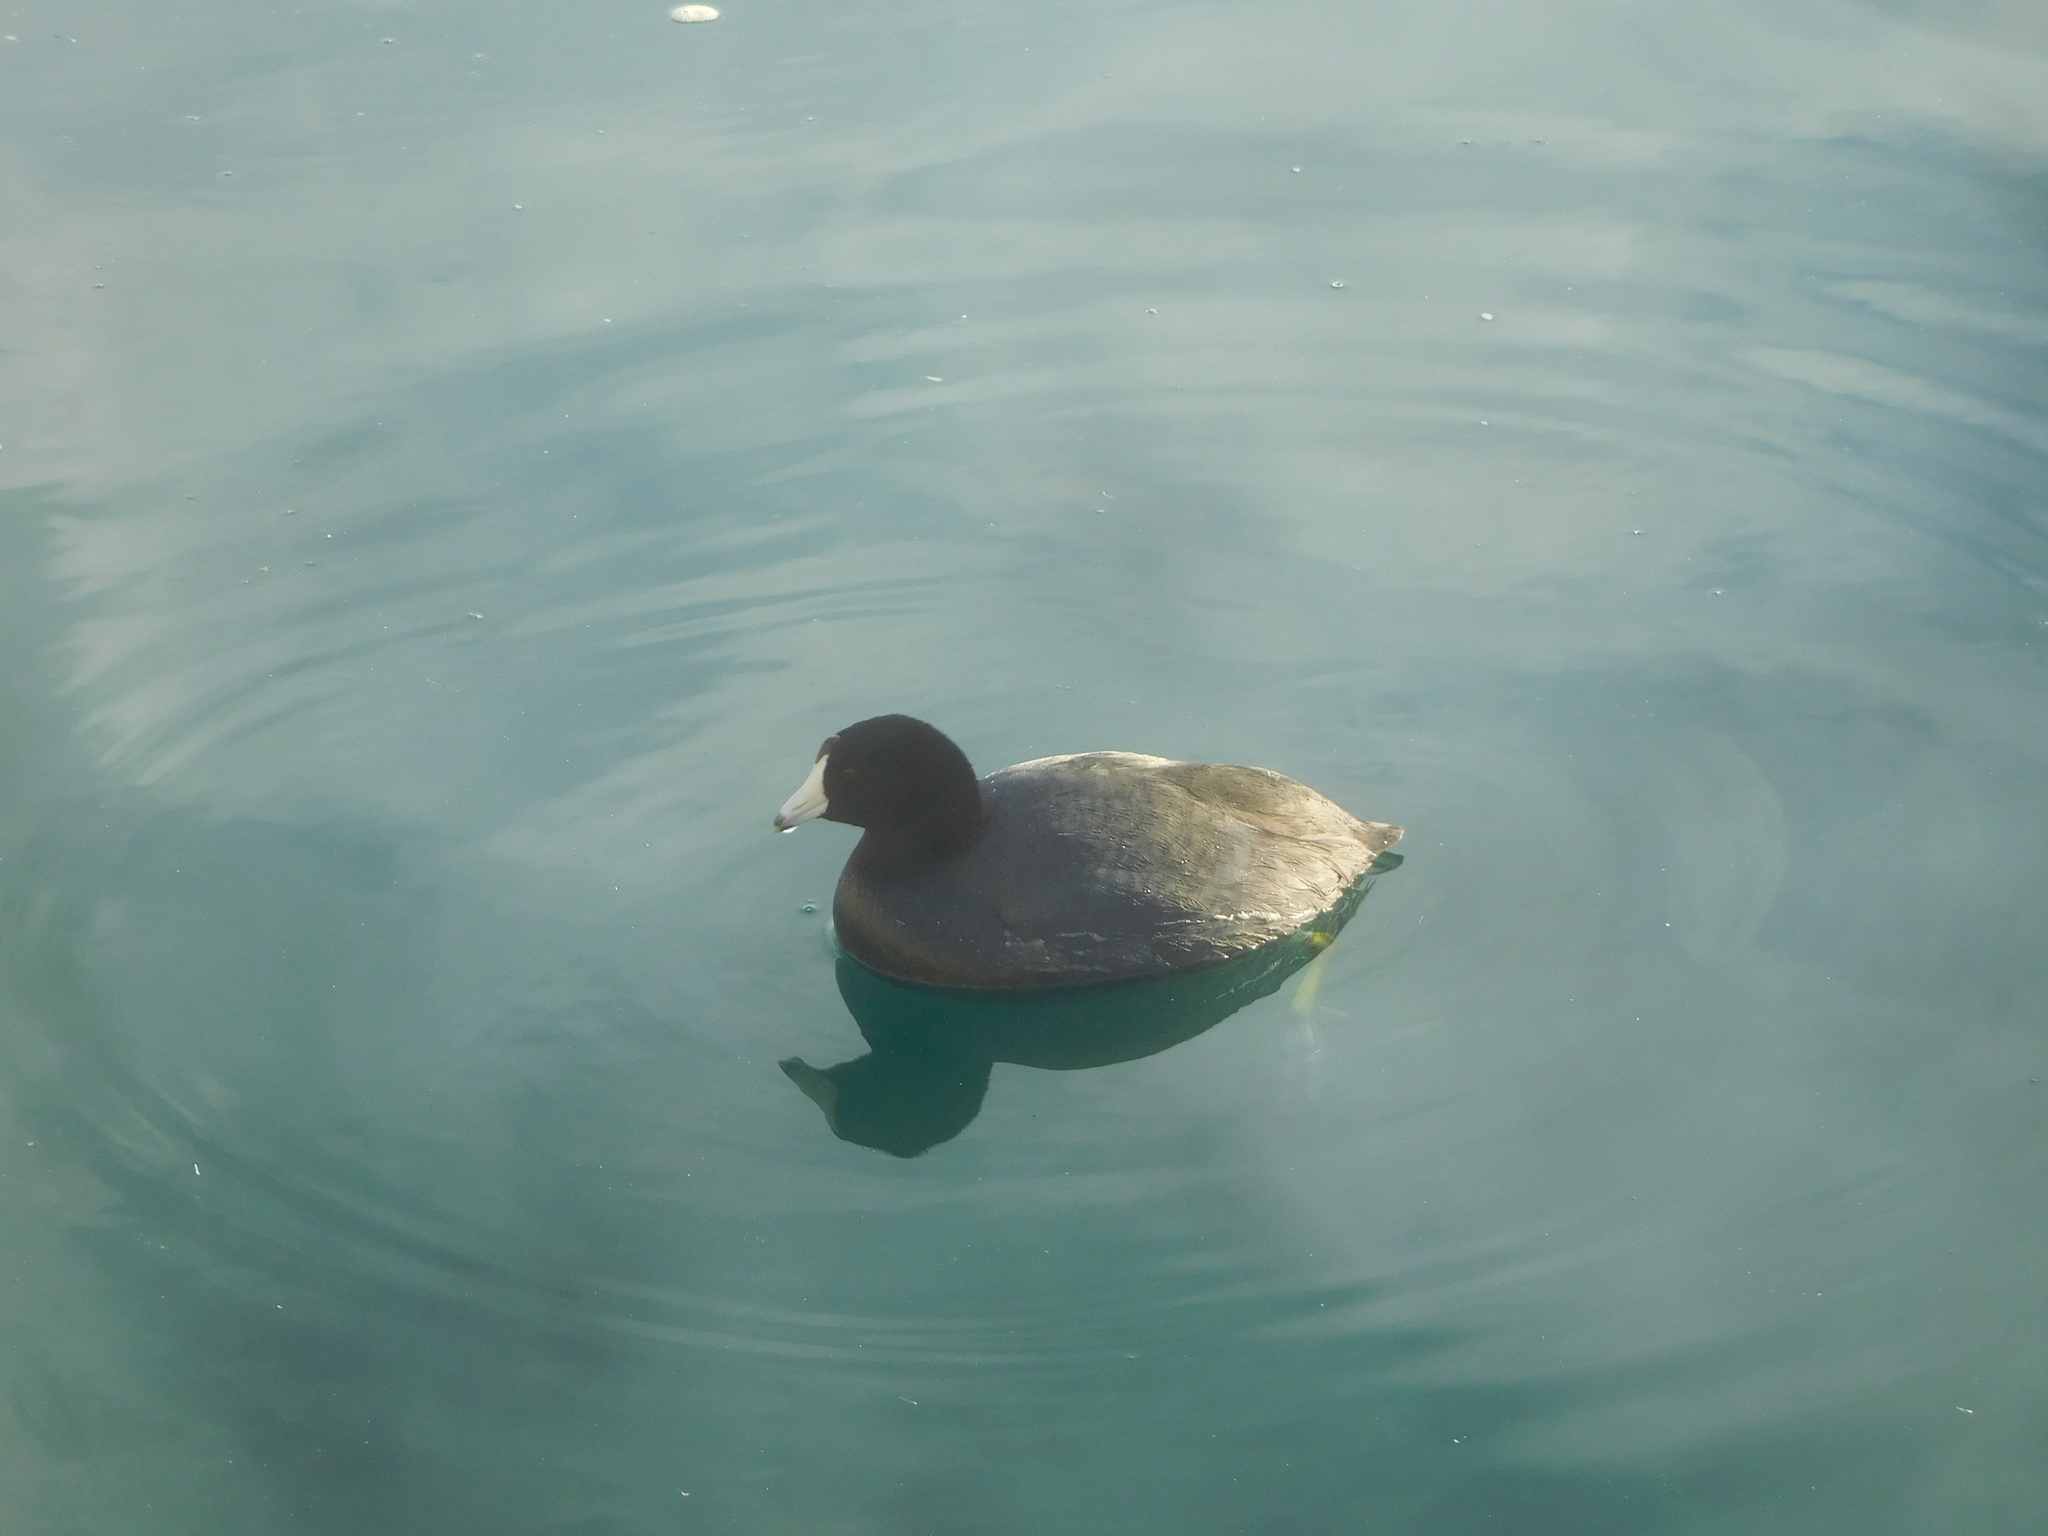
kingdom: Animalia
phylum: Chordata
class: Aves
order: Gruiformes
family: Rallidae
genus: Fulica
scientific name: Fulica americana
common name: American coot
